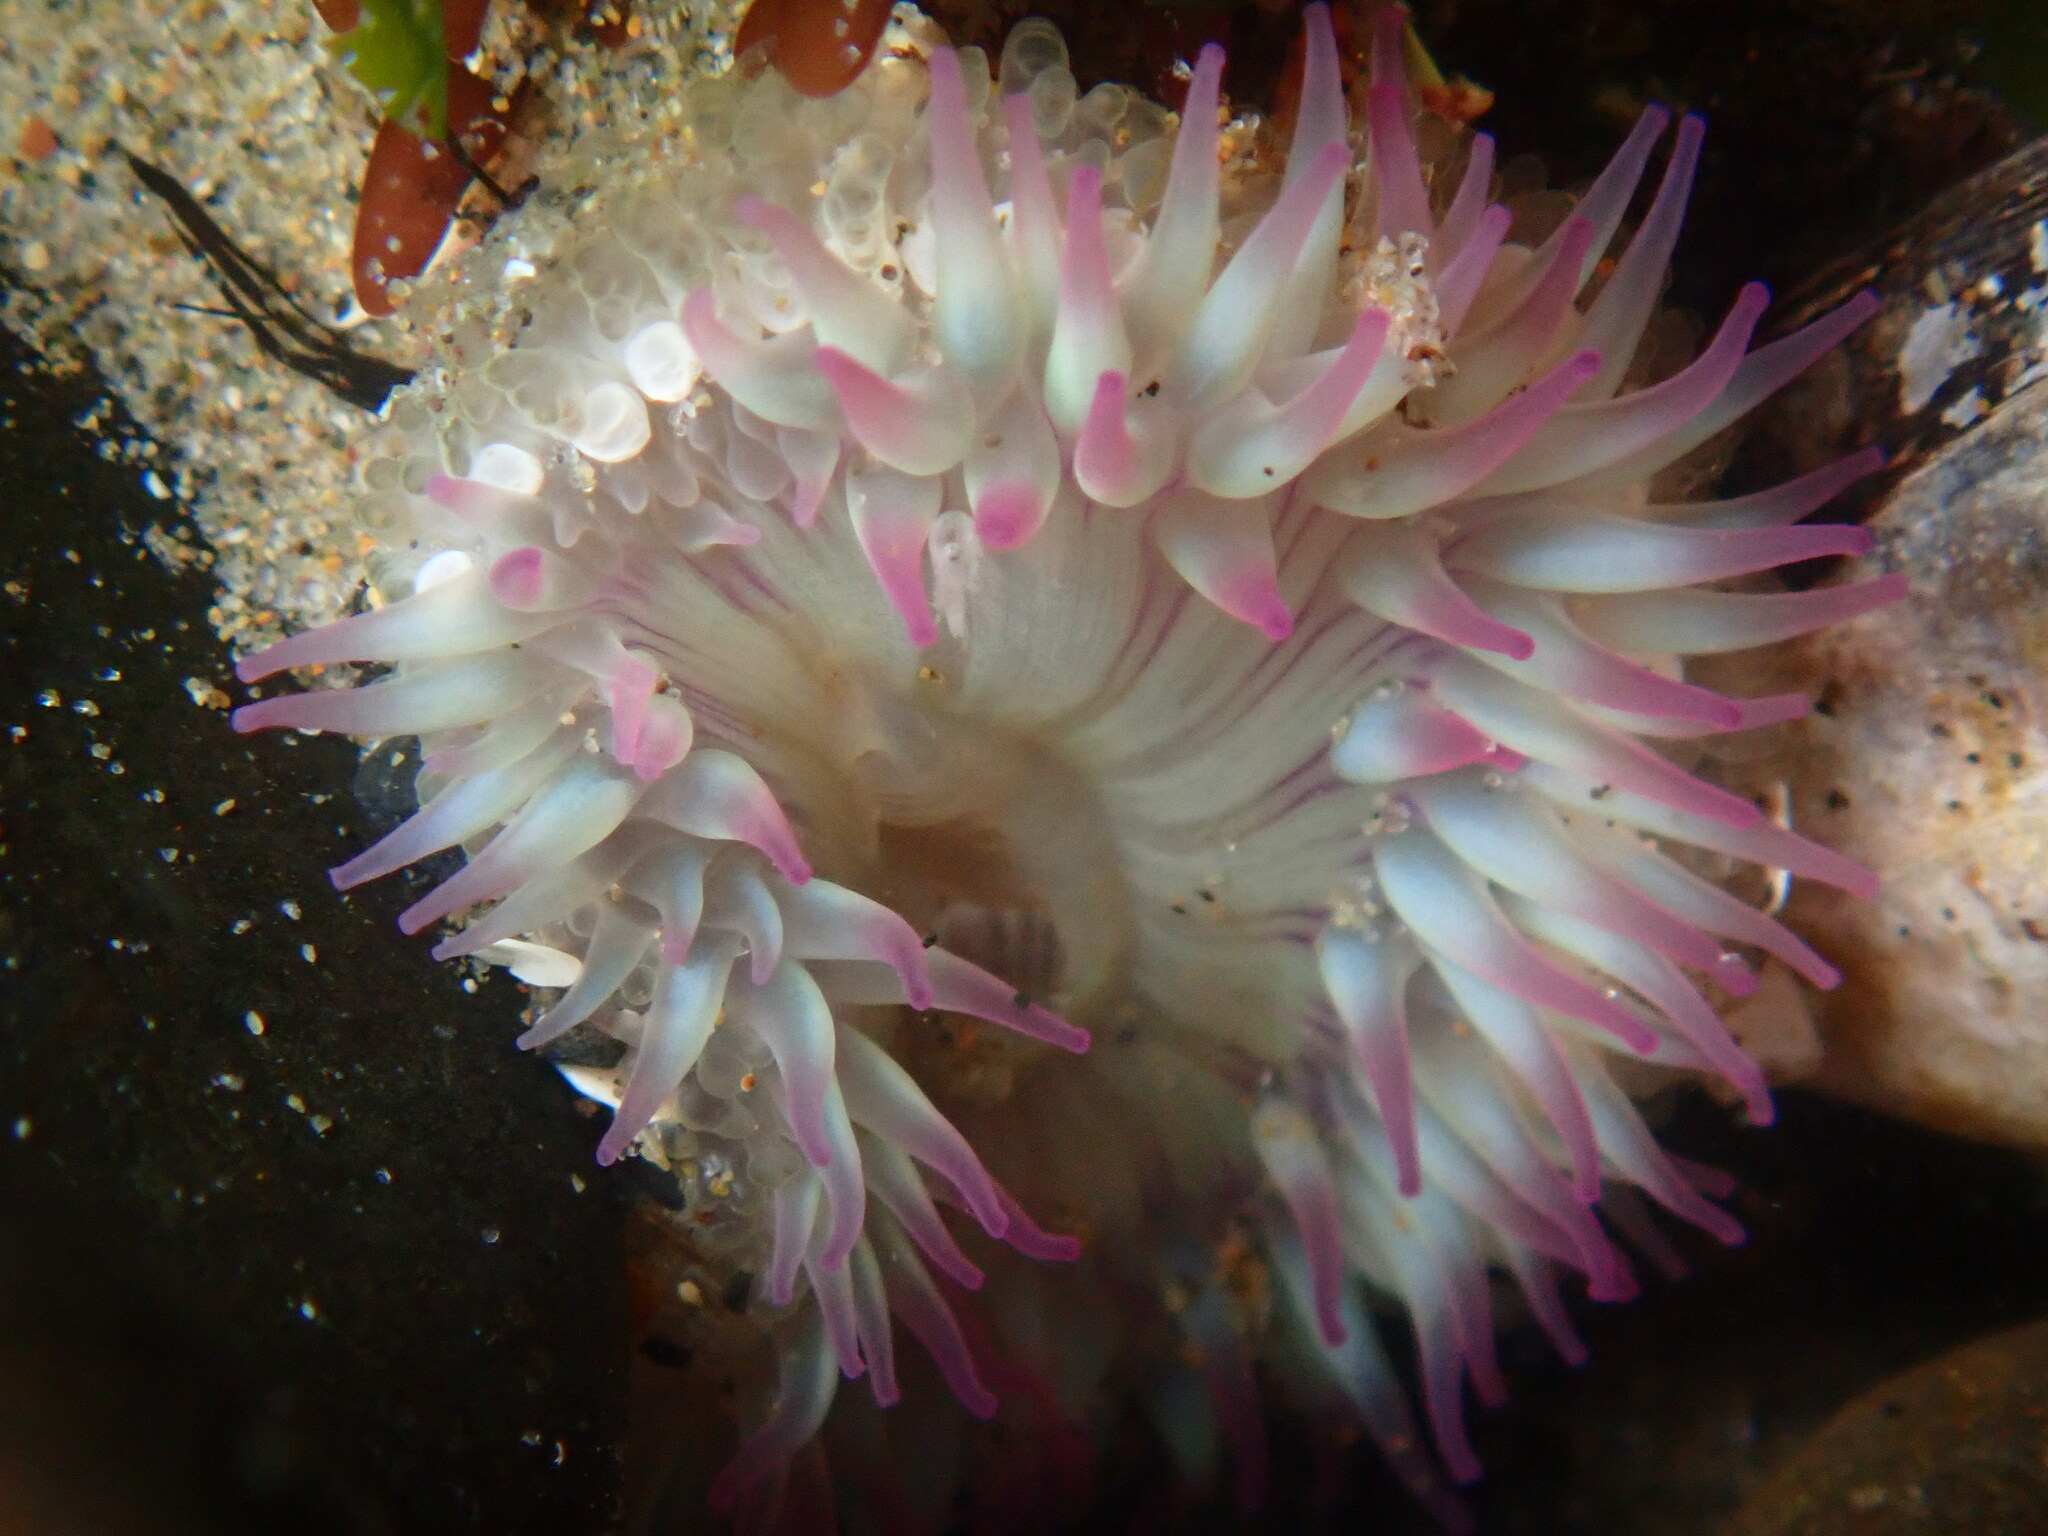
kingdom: Animalia
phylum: Cnidaria
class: Anthozoa
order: Actiniaria
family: Actiniidae
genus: Anthopleura
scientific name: Anthopleura elegantissima
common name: Clonal anemone
